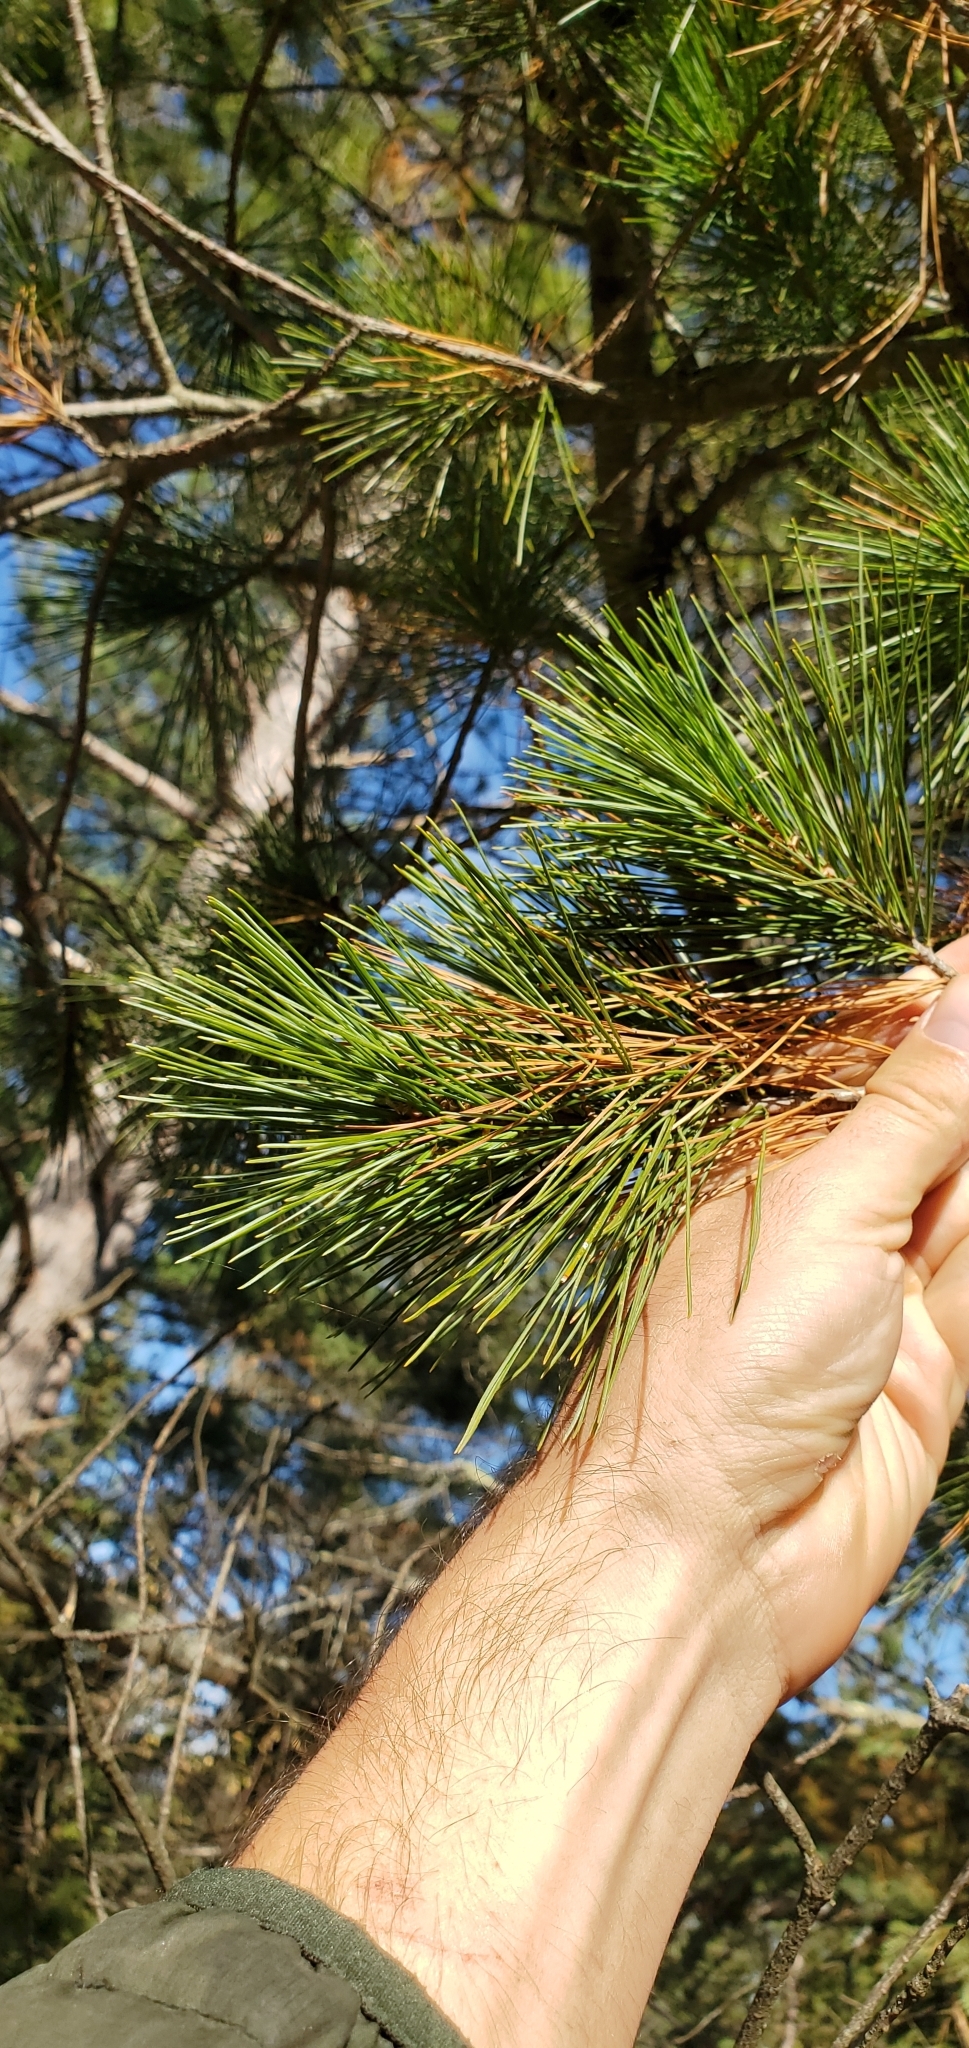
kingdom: Plantae
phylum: Tracheophyta
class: Pinopsida
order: Pinales
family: Pinaceae
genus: Pinus
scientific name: Pinus strobus
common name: Weymouth pine
